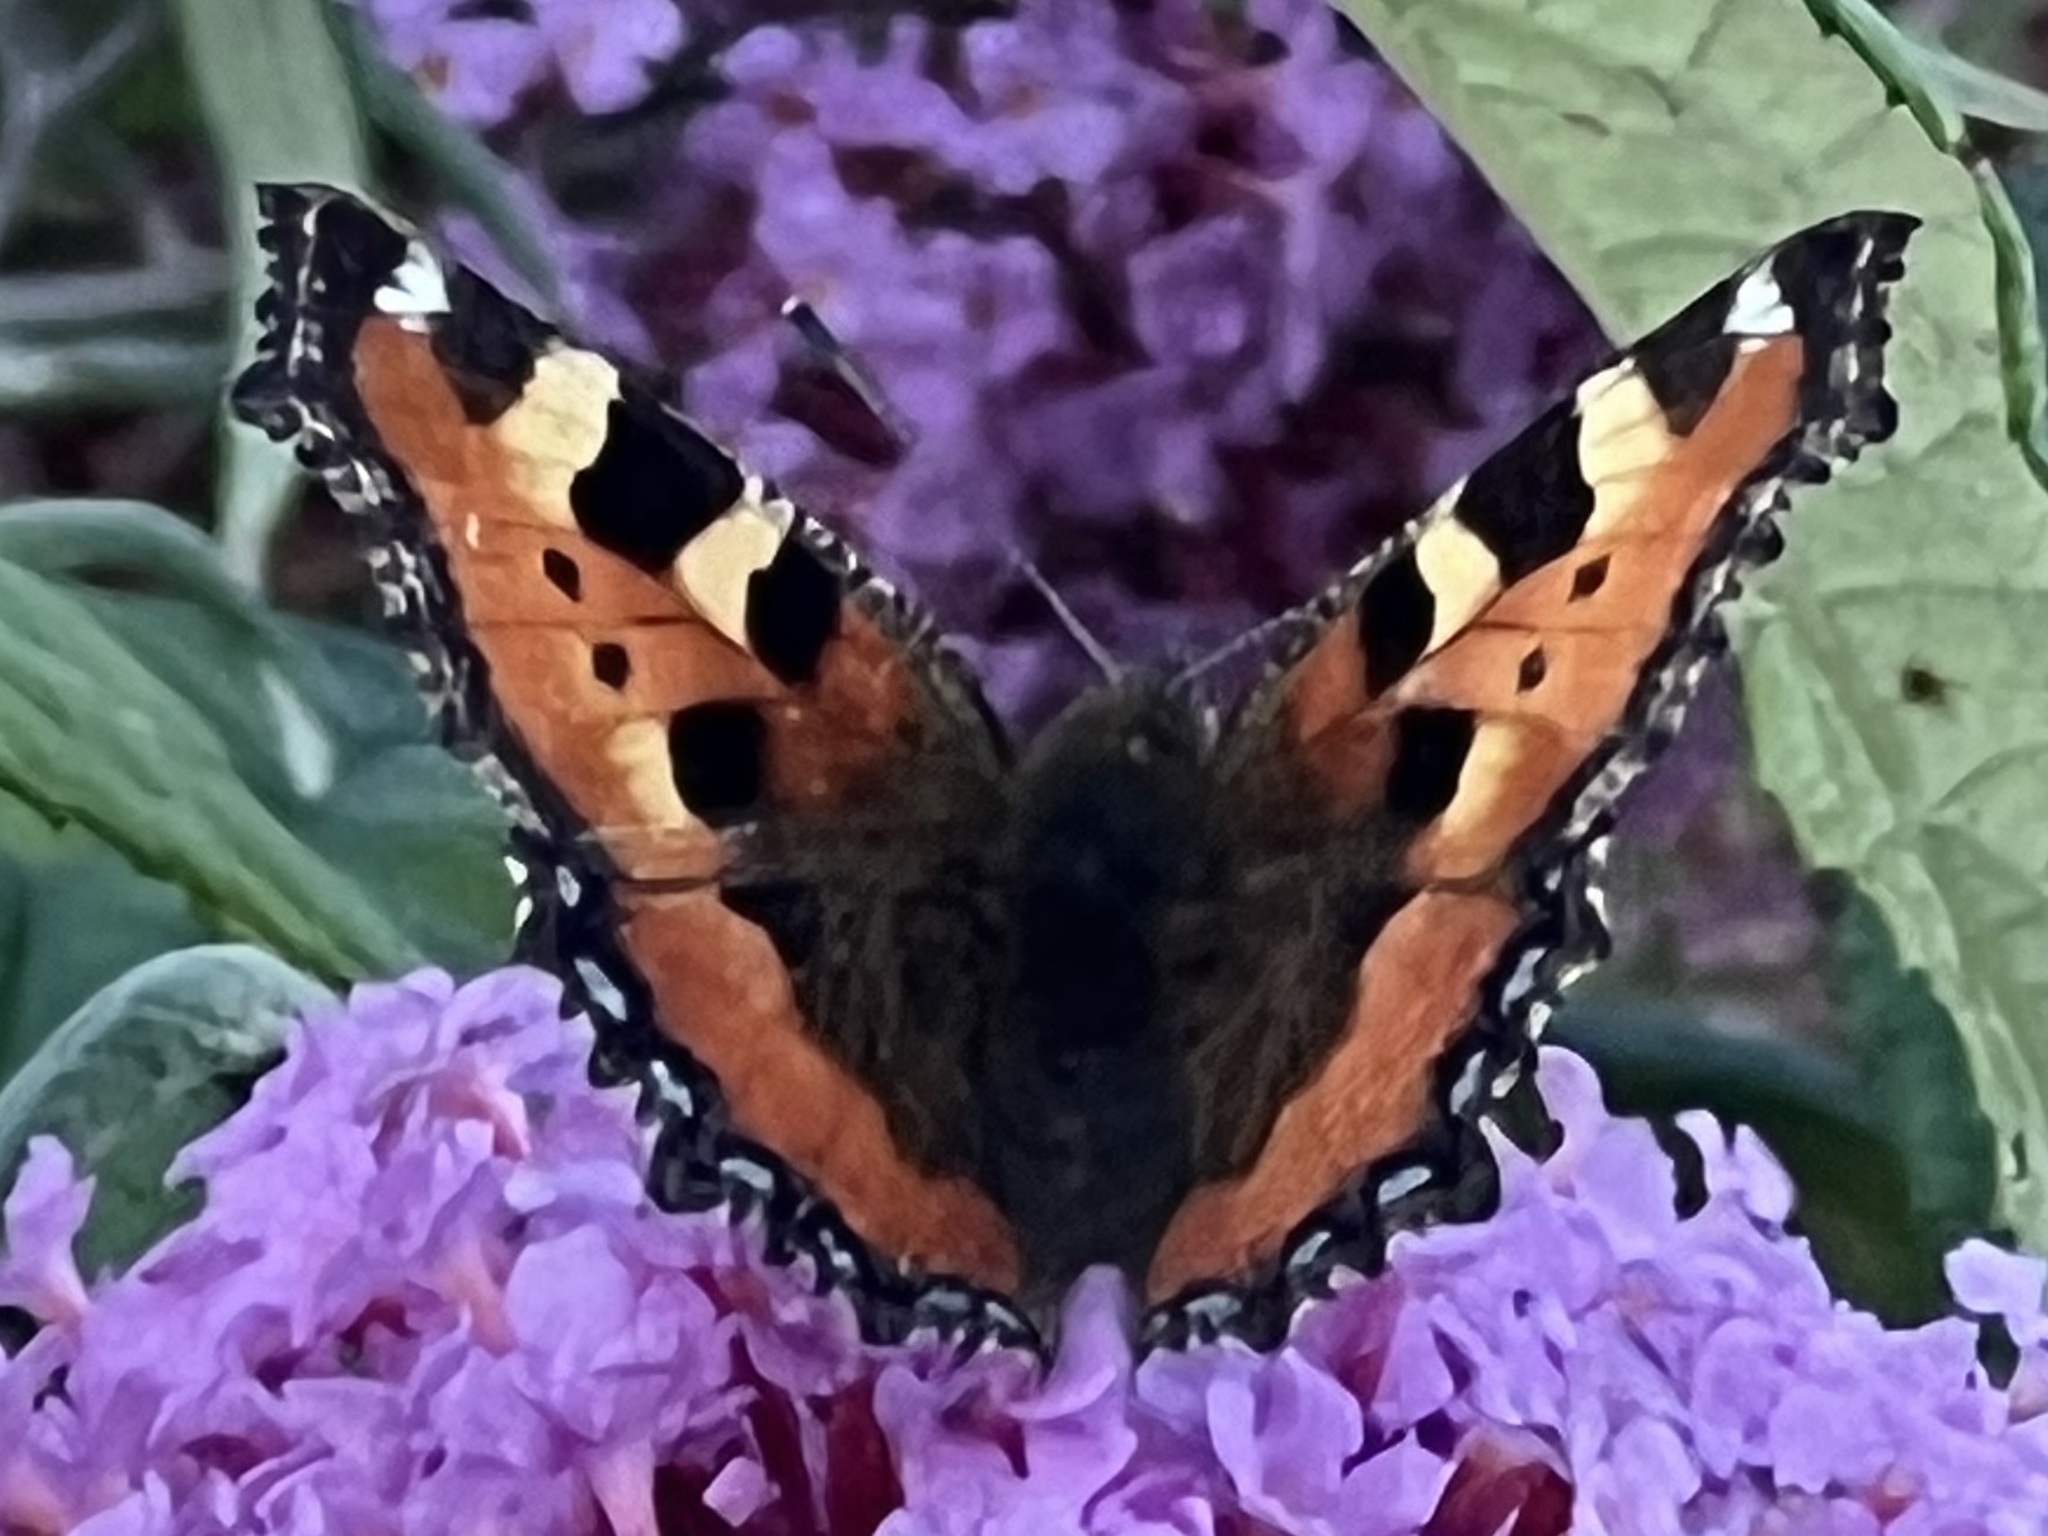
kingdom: Animalia
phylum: Arthropoda
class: Insecta
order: Lepidoptera
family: Nymphalidae
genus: Aglais
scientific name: Aglais urticae
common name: Small tortoiseshell
